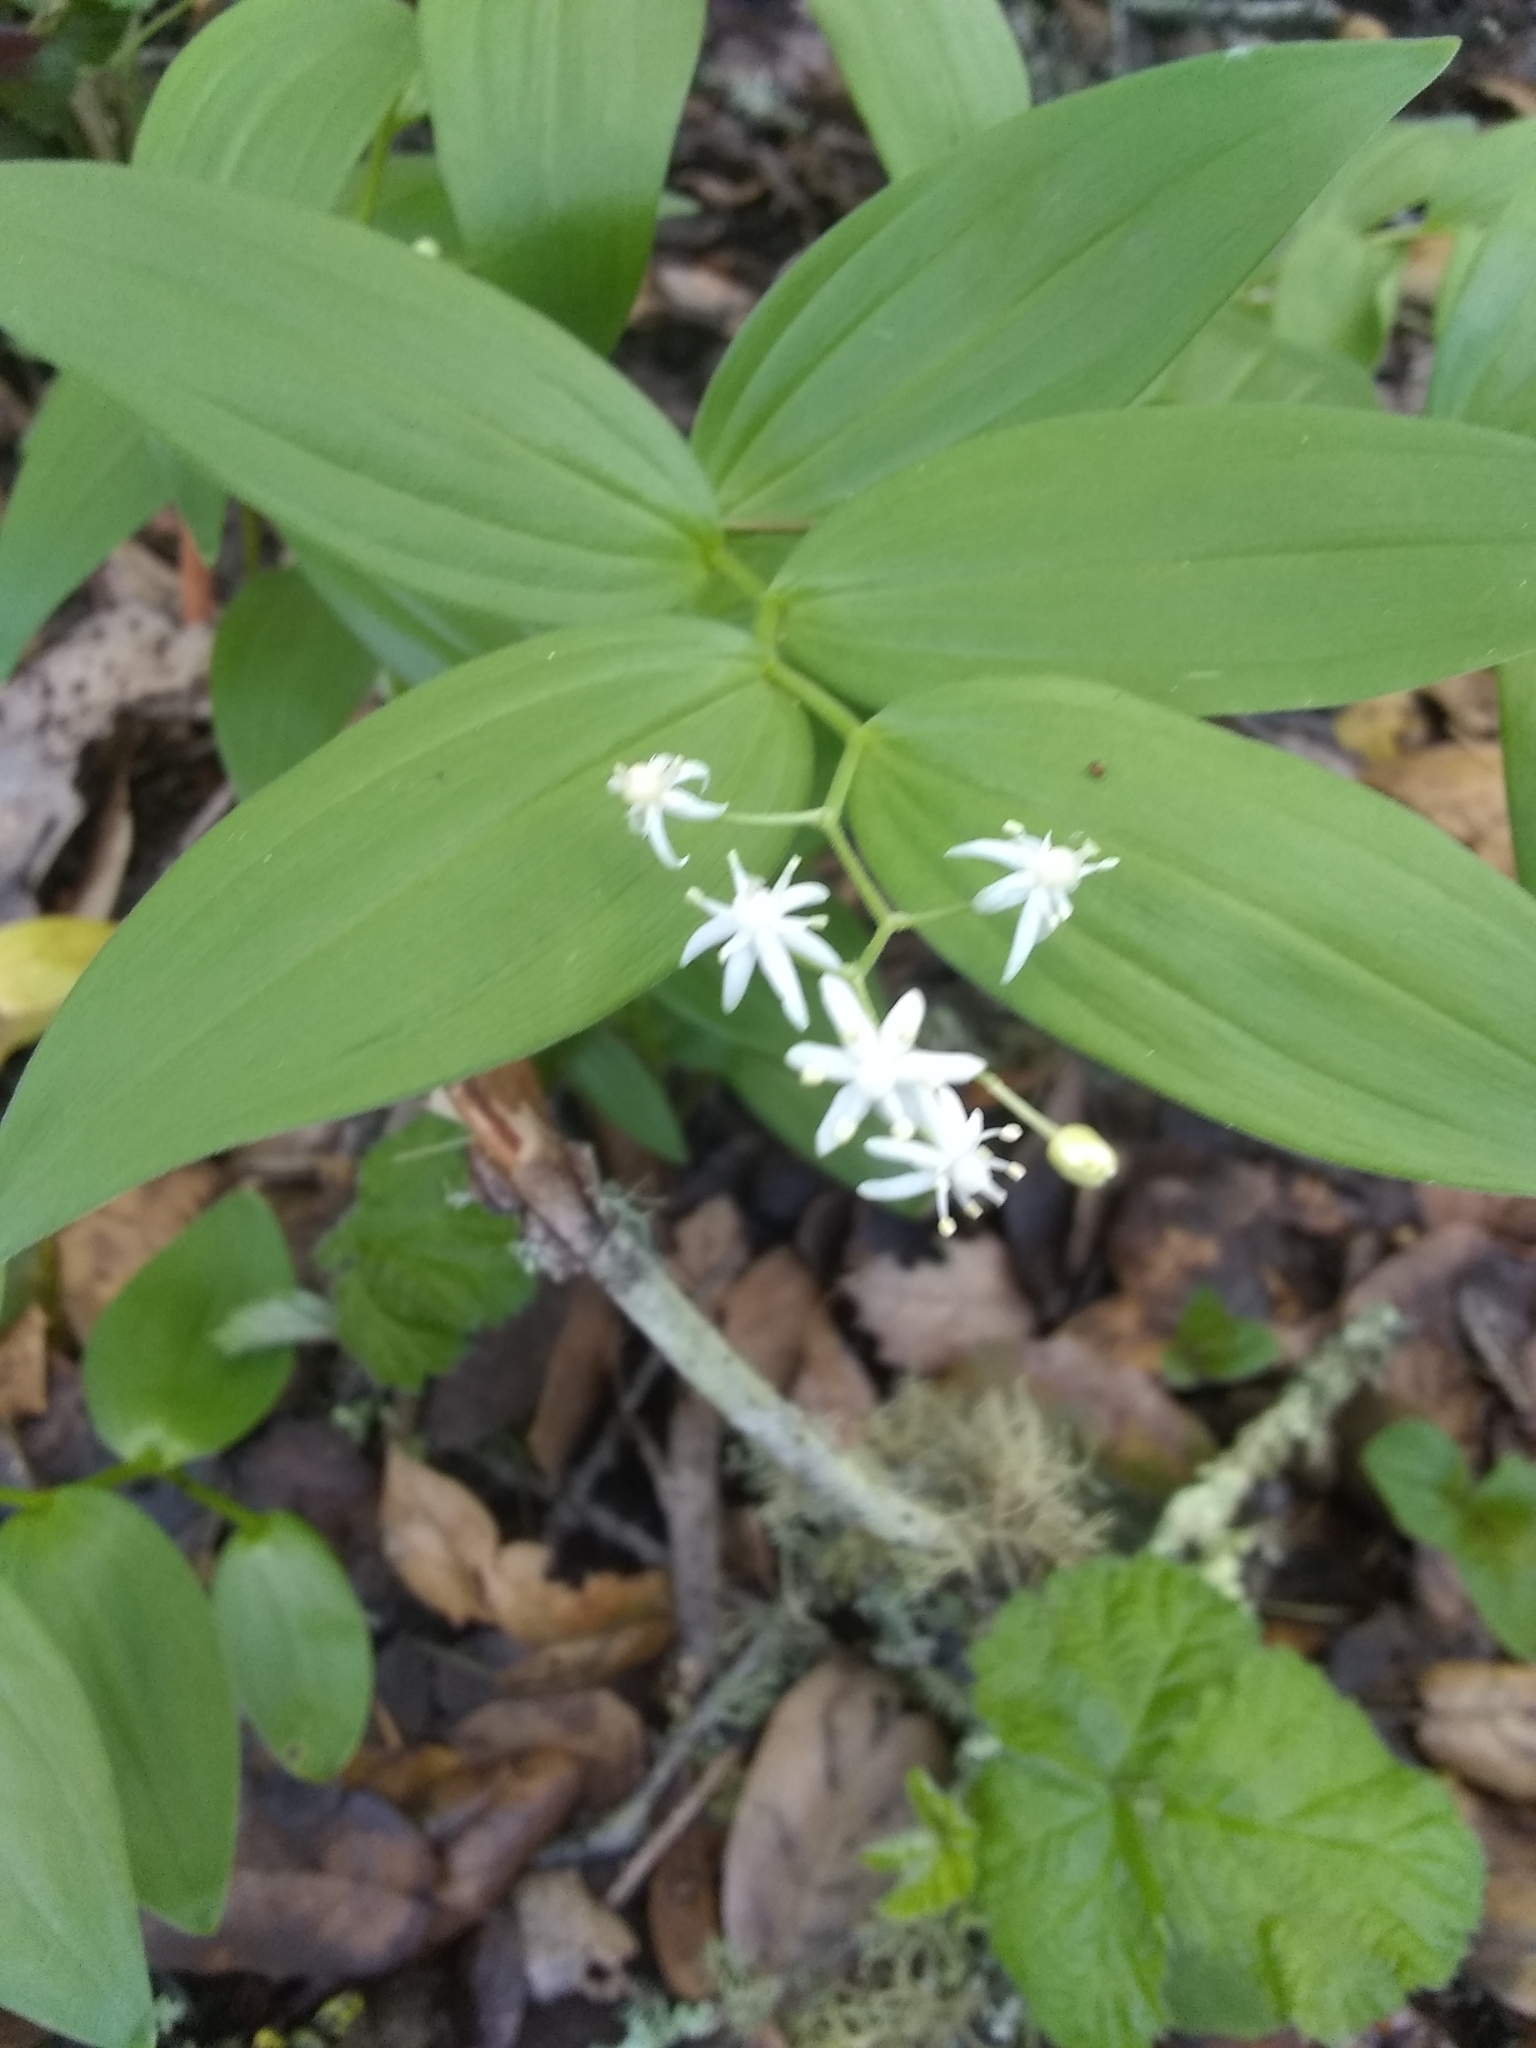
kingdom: Plantae
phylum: Tracheophyta
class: Liliopsida
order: Asparagales
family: Asparagaceae
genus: Maianthemum
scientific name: Maianthemum stellatum
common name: Little false solomon's seal
